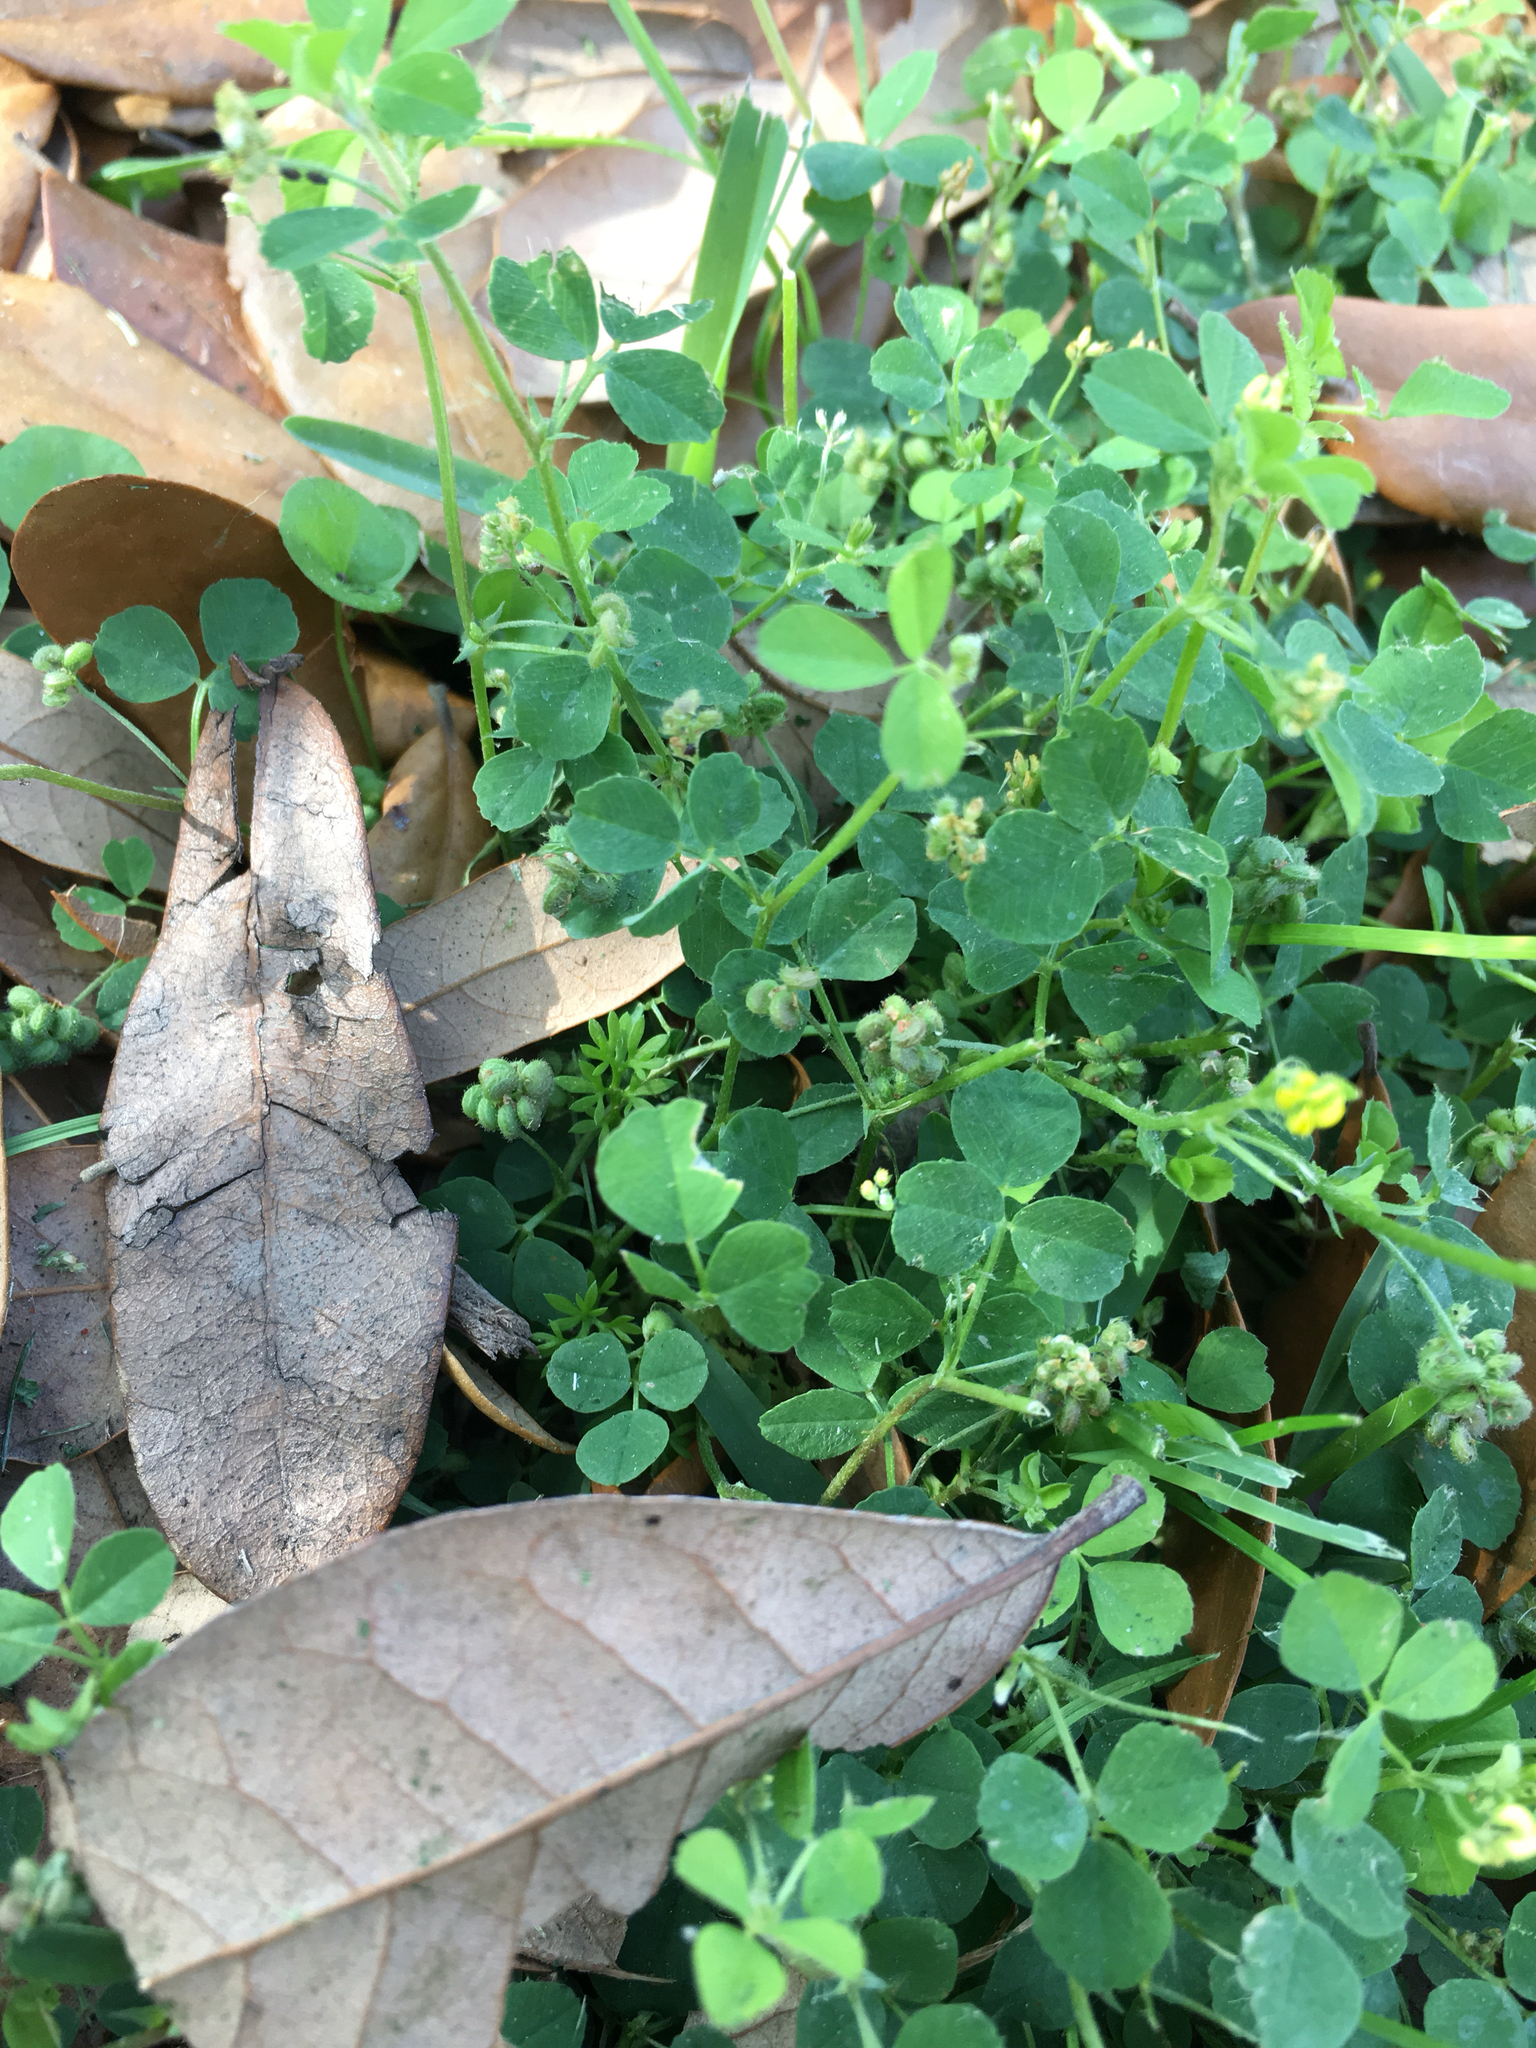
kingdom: Plantae
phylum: Tracheophyta
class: Magnoliopsida
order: Fabales
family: Fabaceae
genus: Medicago
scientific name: Medicago lupulina
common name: Black medick
